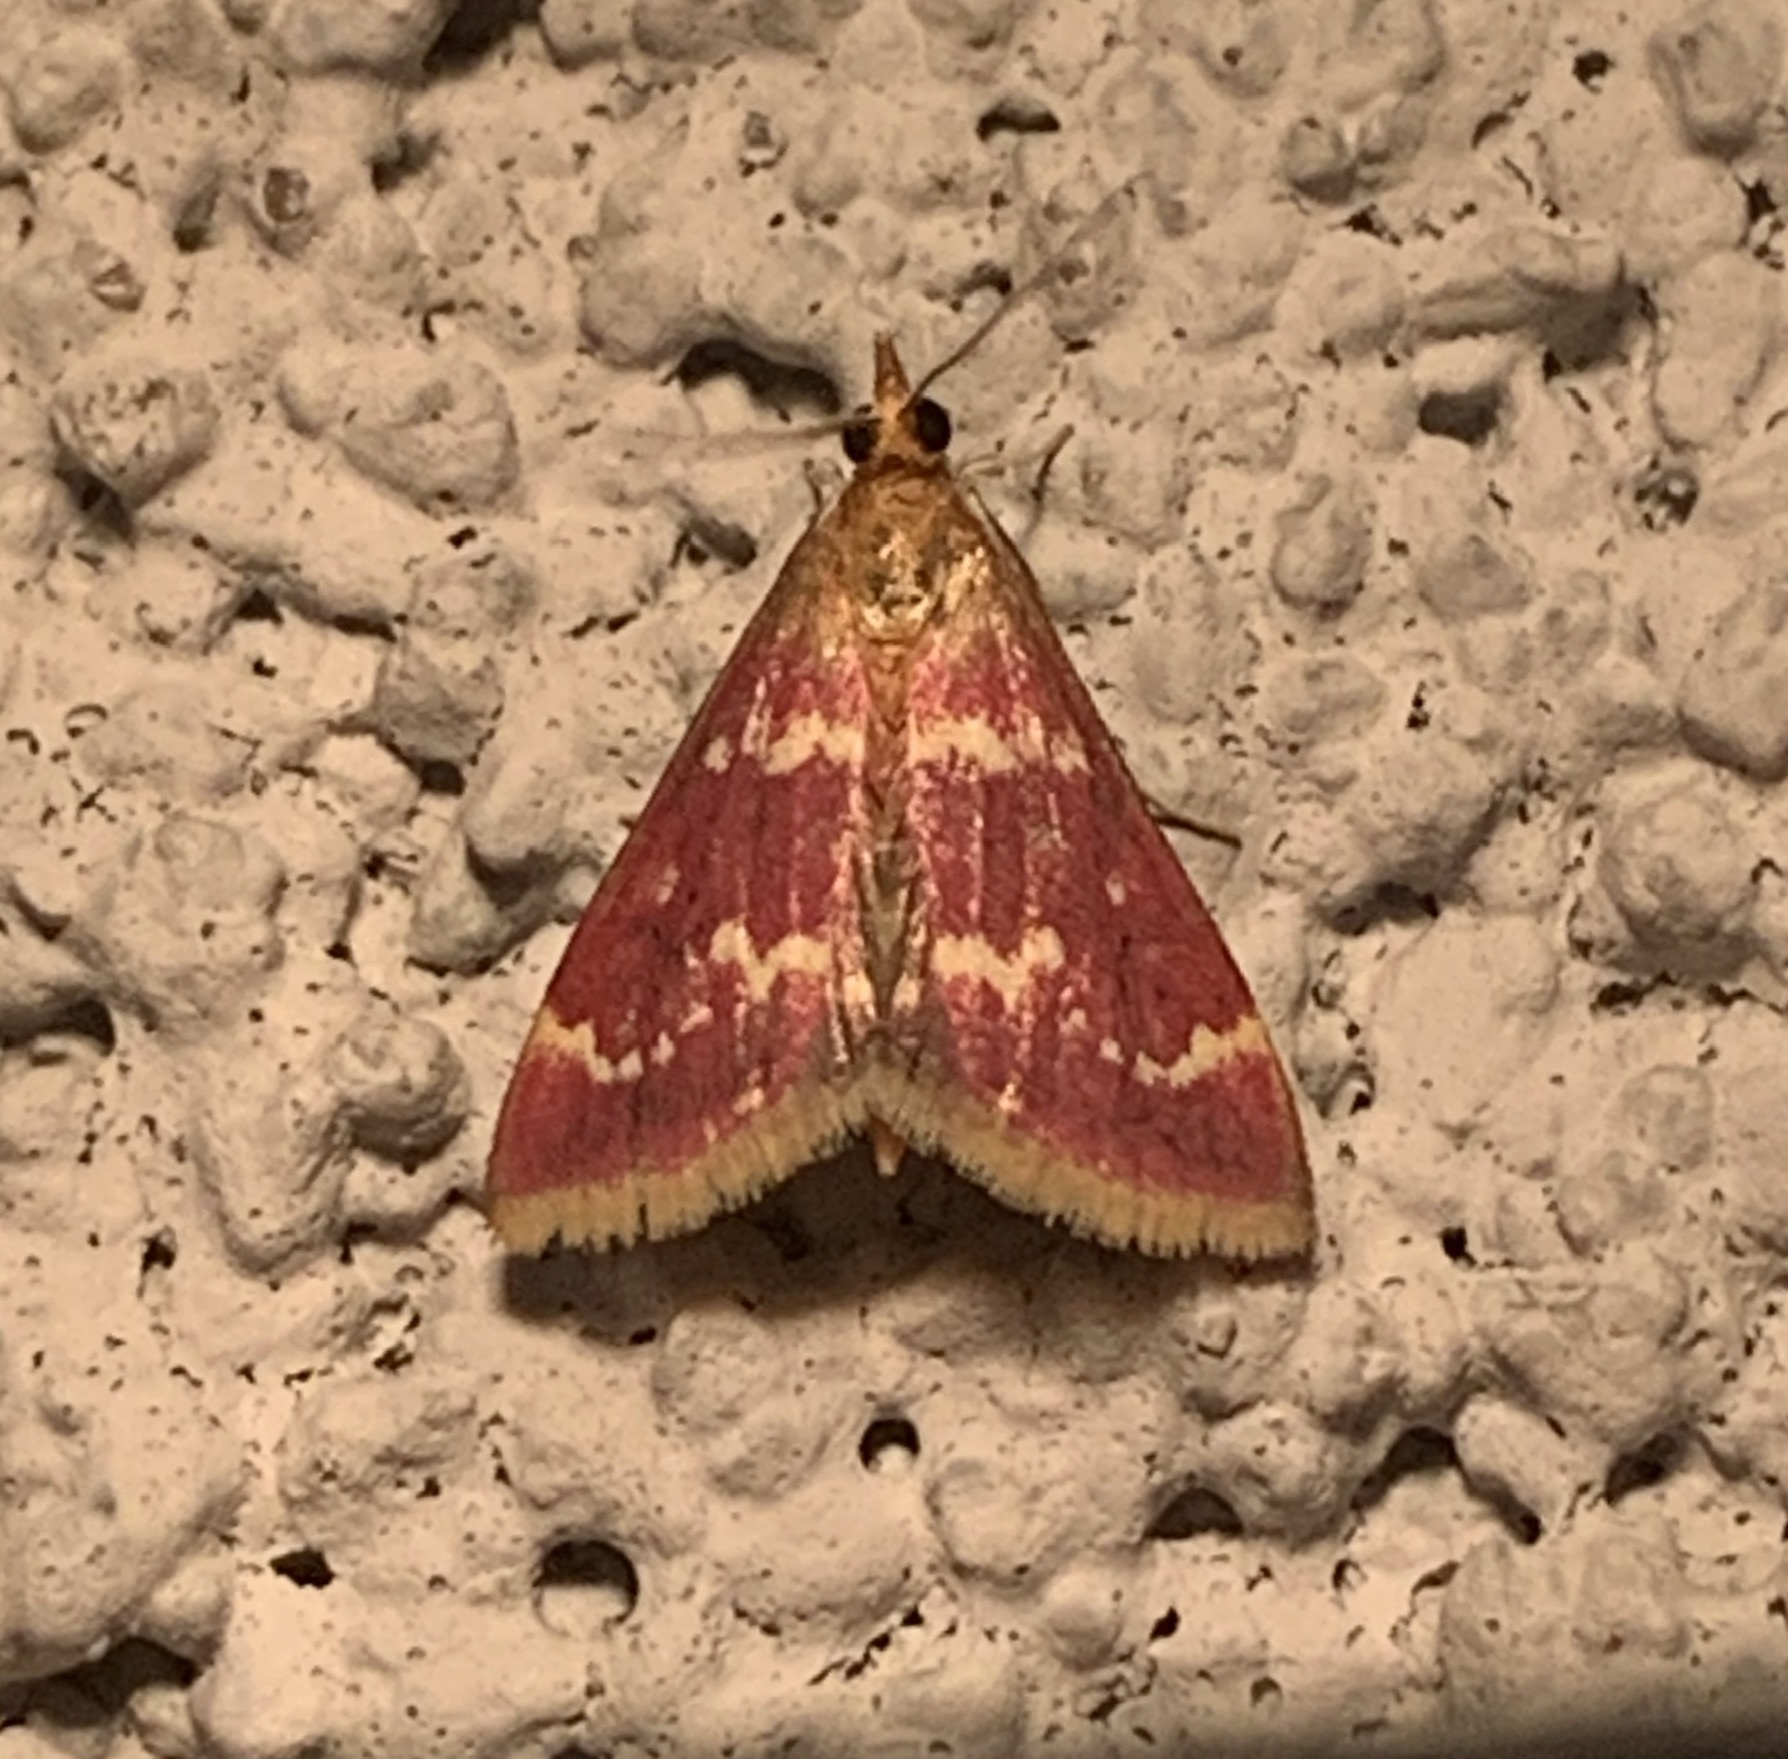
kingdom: Animalia
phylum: Arthropoda
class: Insecta
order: Lepidoptera
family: Crambidae
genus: Pyrausta
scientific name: Pyrausta signatalis
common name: Raspberry pyrausta moth
